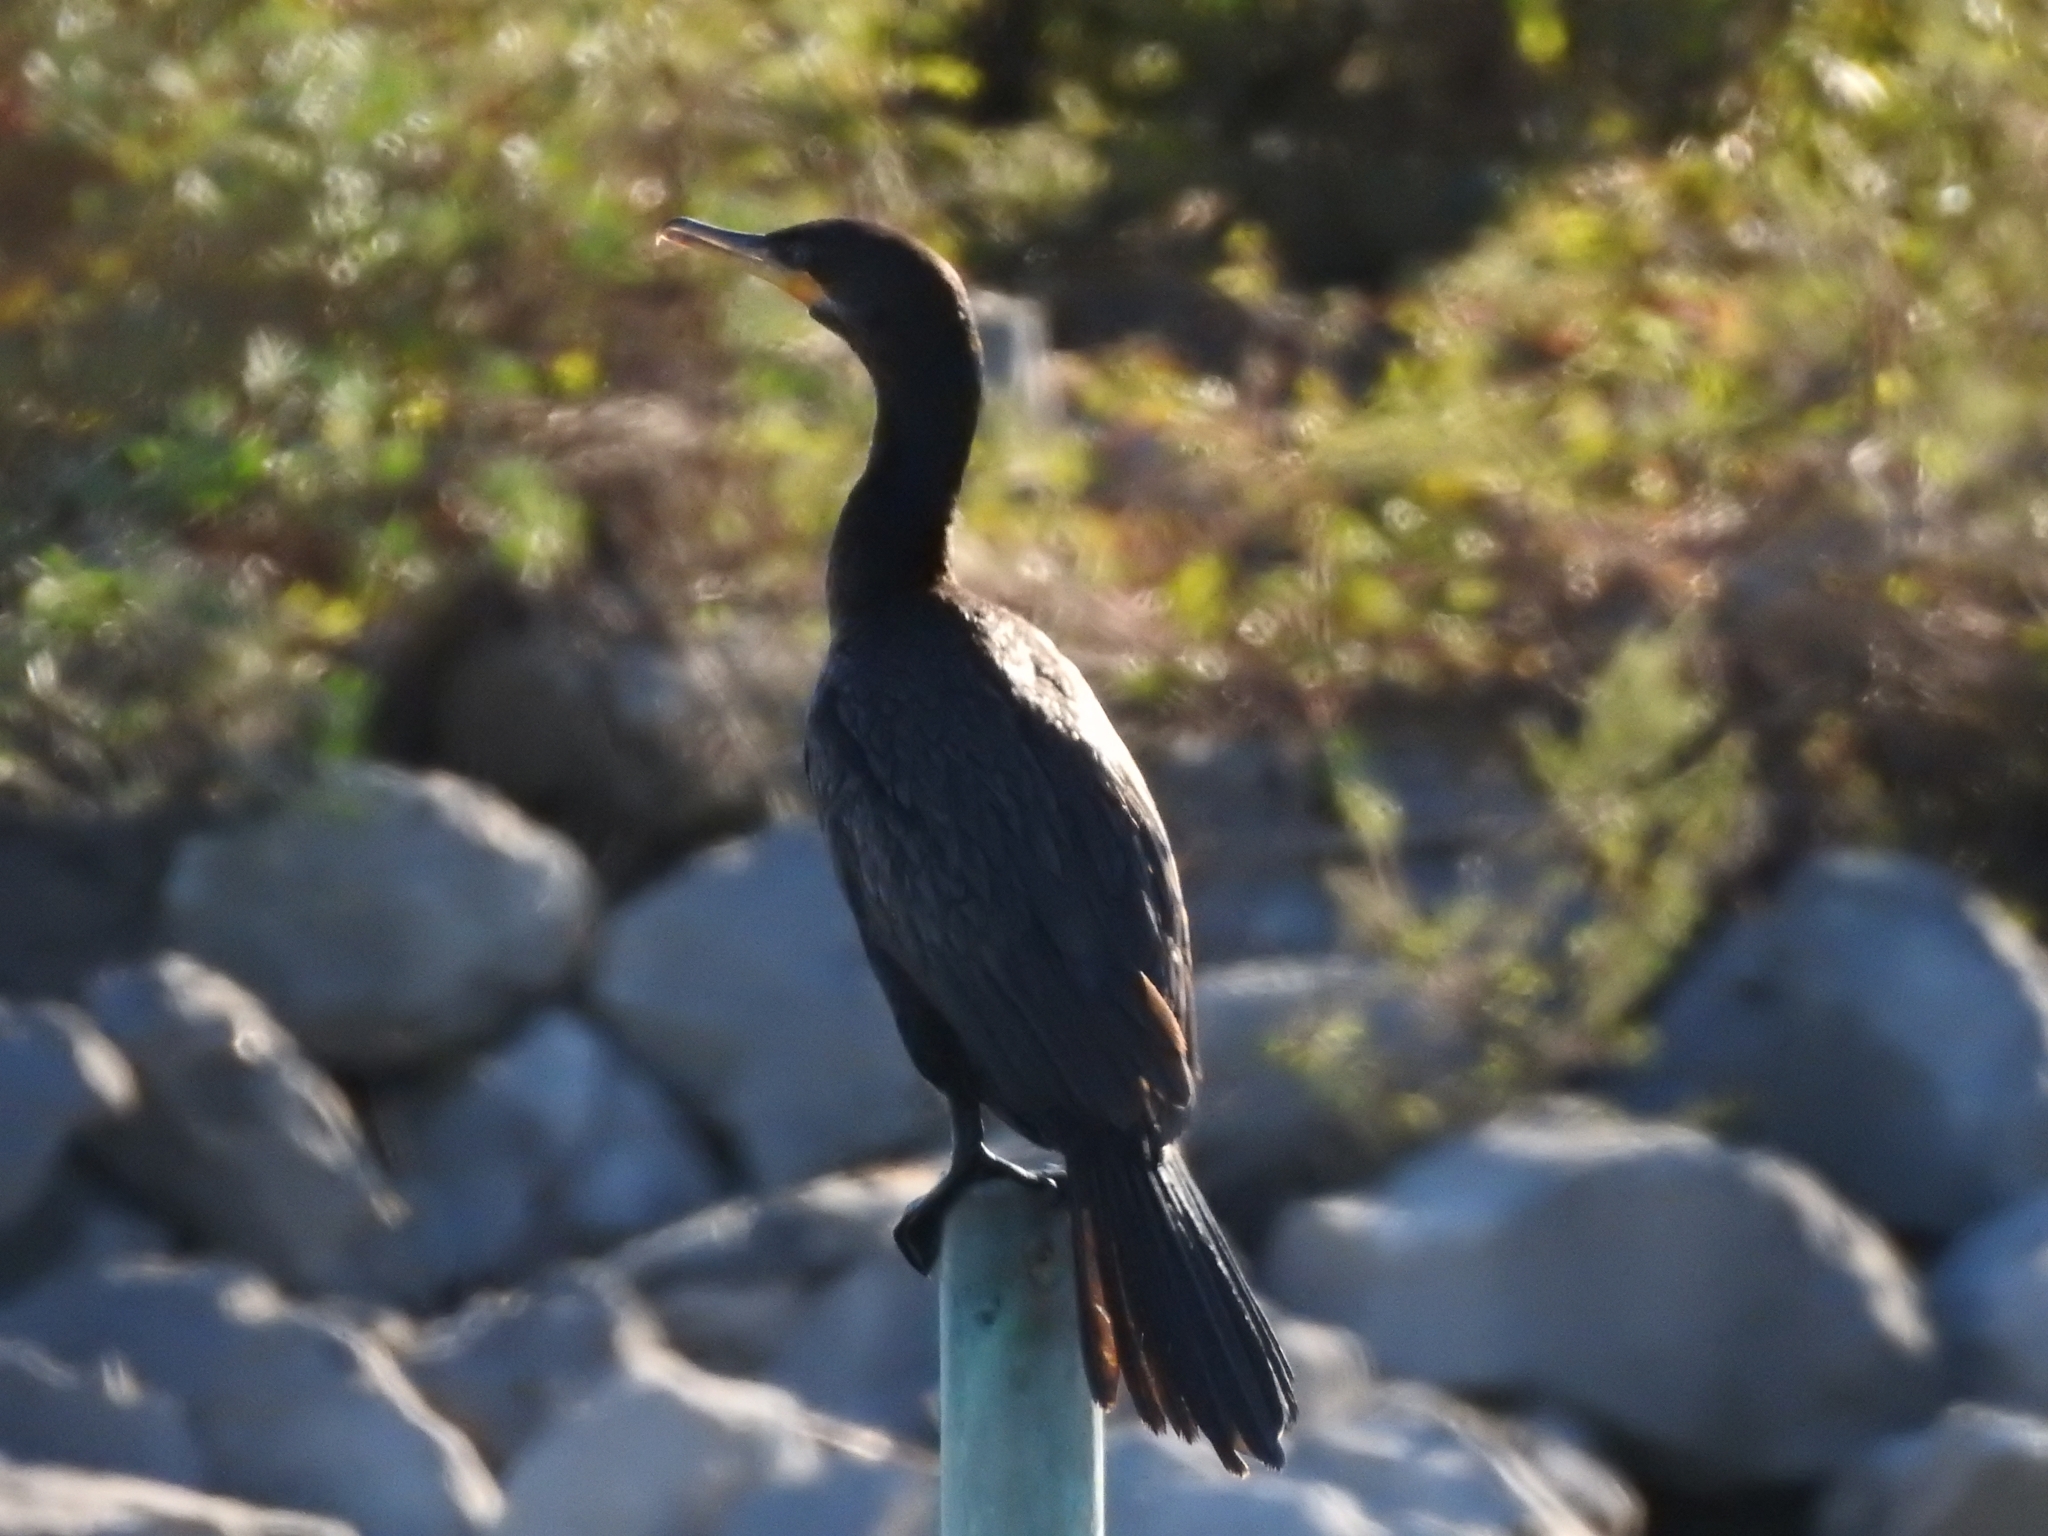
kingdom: Animalia
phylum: Chordata
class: Aves
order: Suliformes
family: Phalacrocoracidae
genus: Phalacrocorax
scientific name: Phalacrocorax brasilianus
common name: Neotropic cormorant
